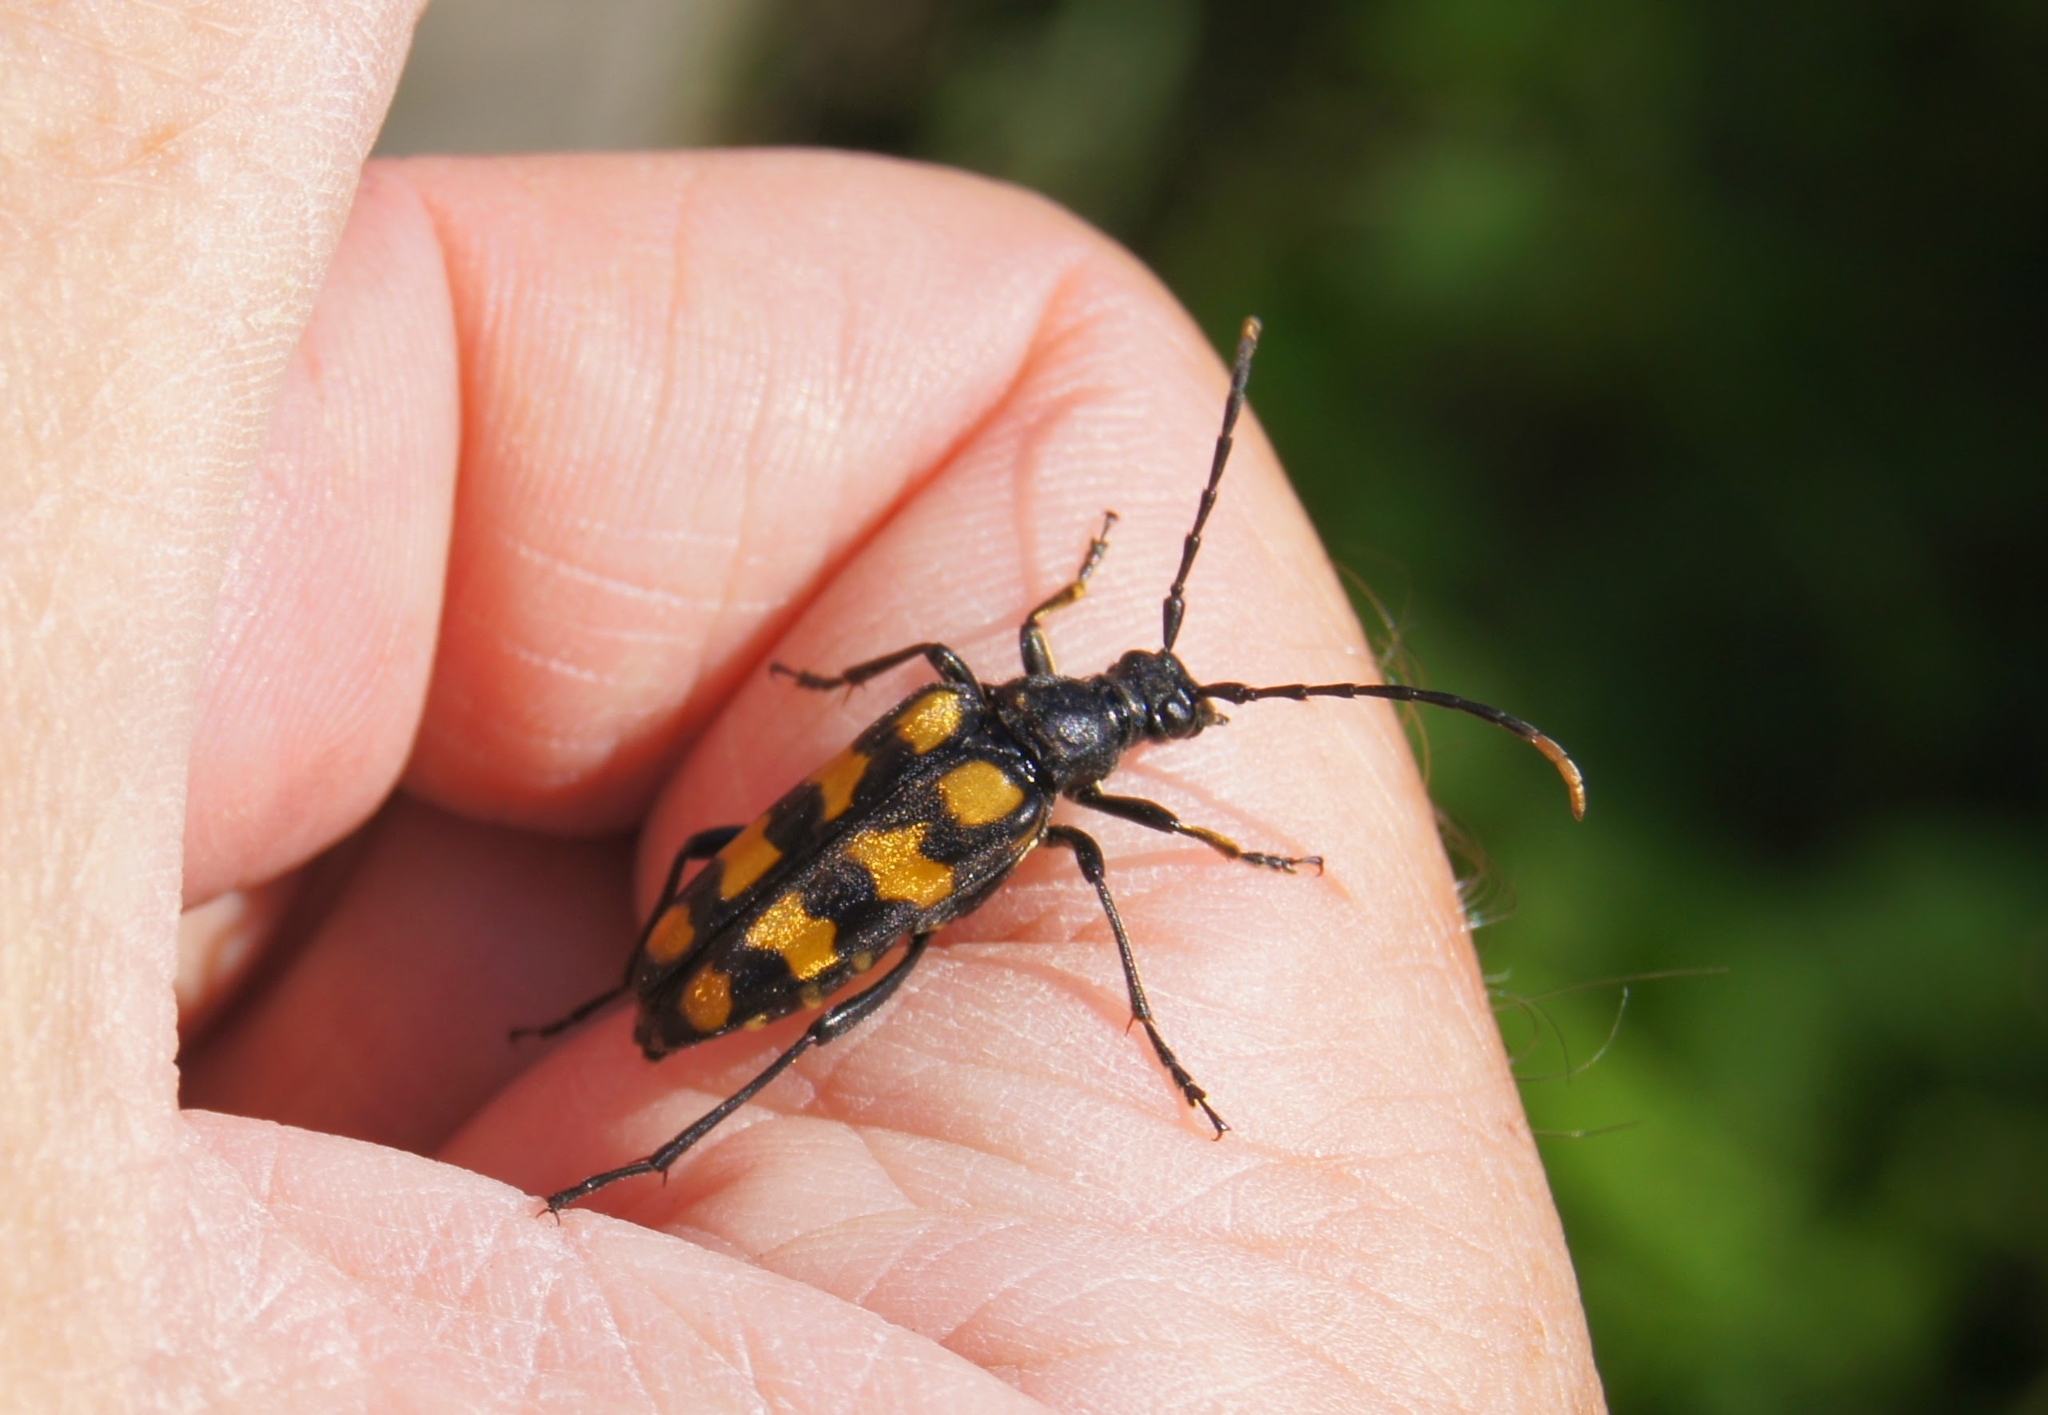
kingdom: Animalia
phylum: Arthropoda
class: Insecta
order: Coleoptera
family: Cerambycidae
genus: Leptura
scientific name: Leptura quadrifasciata
